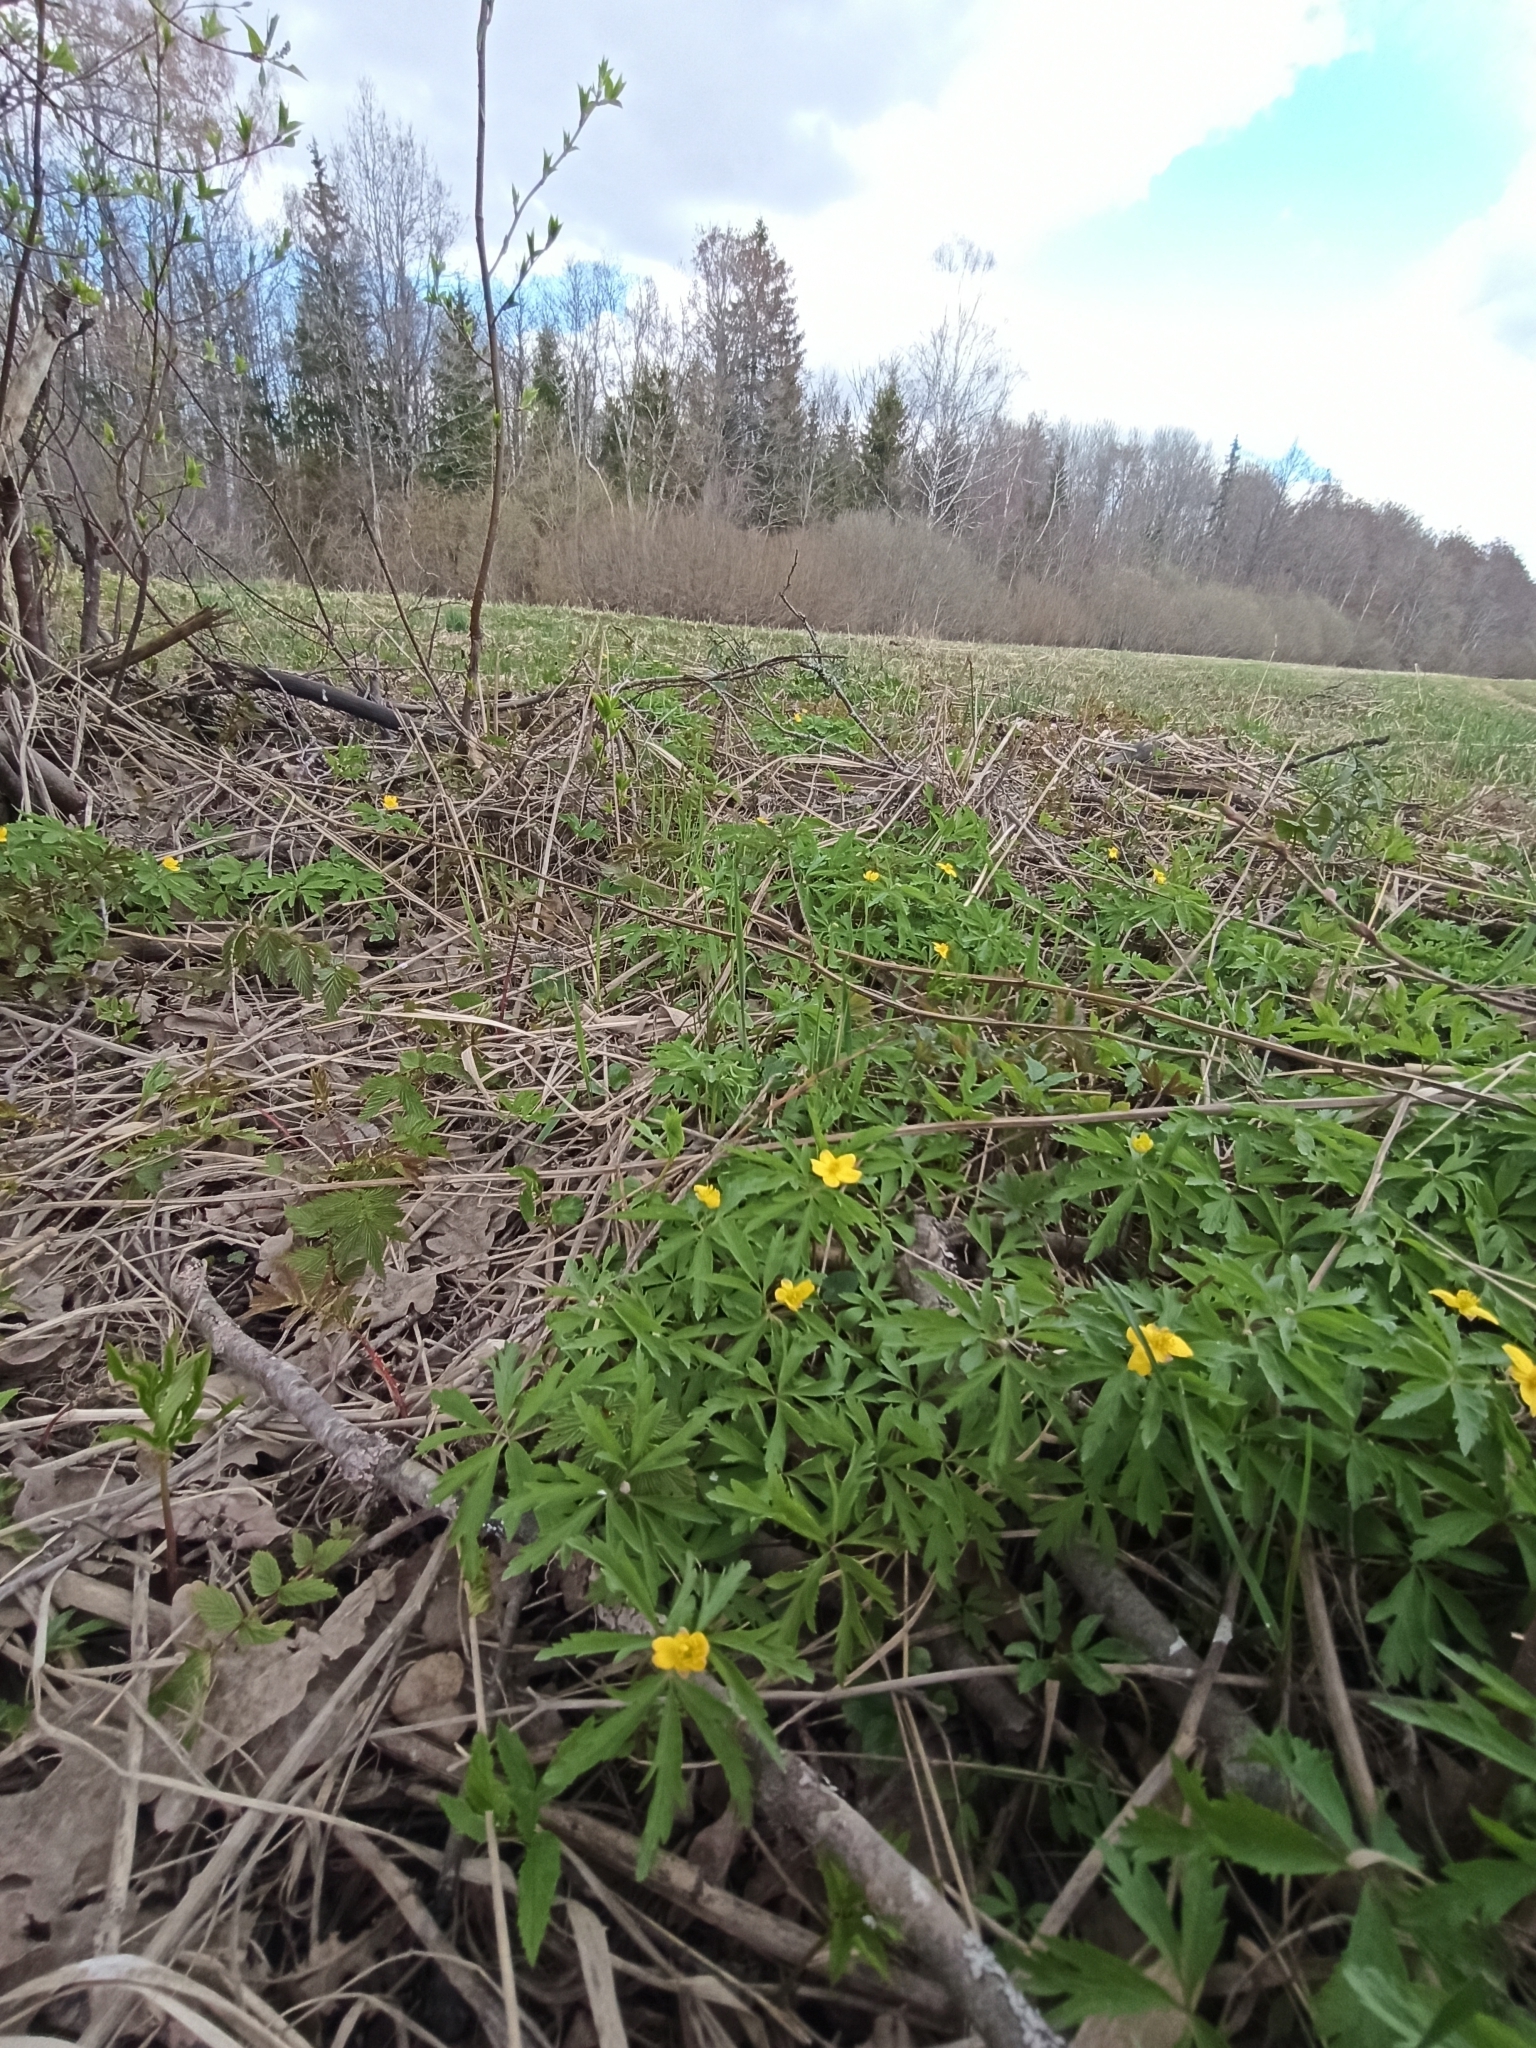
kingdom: Plantae
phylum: Tracheophyta
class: Magnoliopsida
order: Ranunculales
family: Ranunculaceae
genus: Anemone
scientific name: Anemone ranunculoides
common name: Yellow anemone
